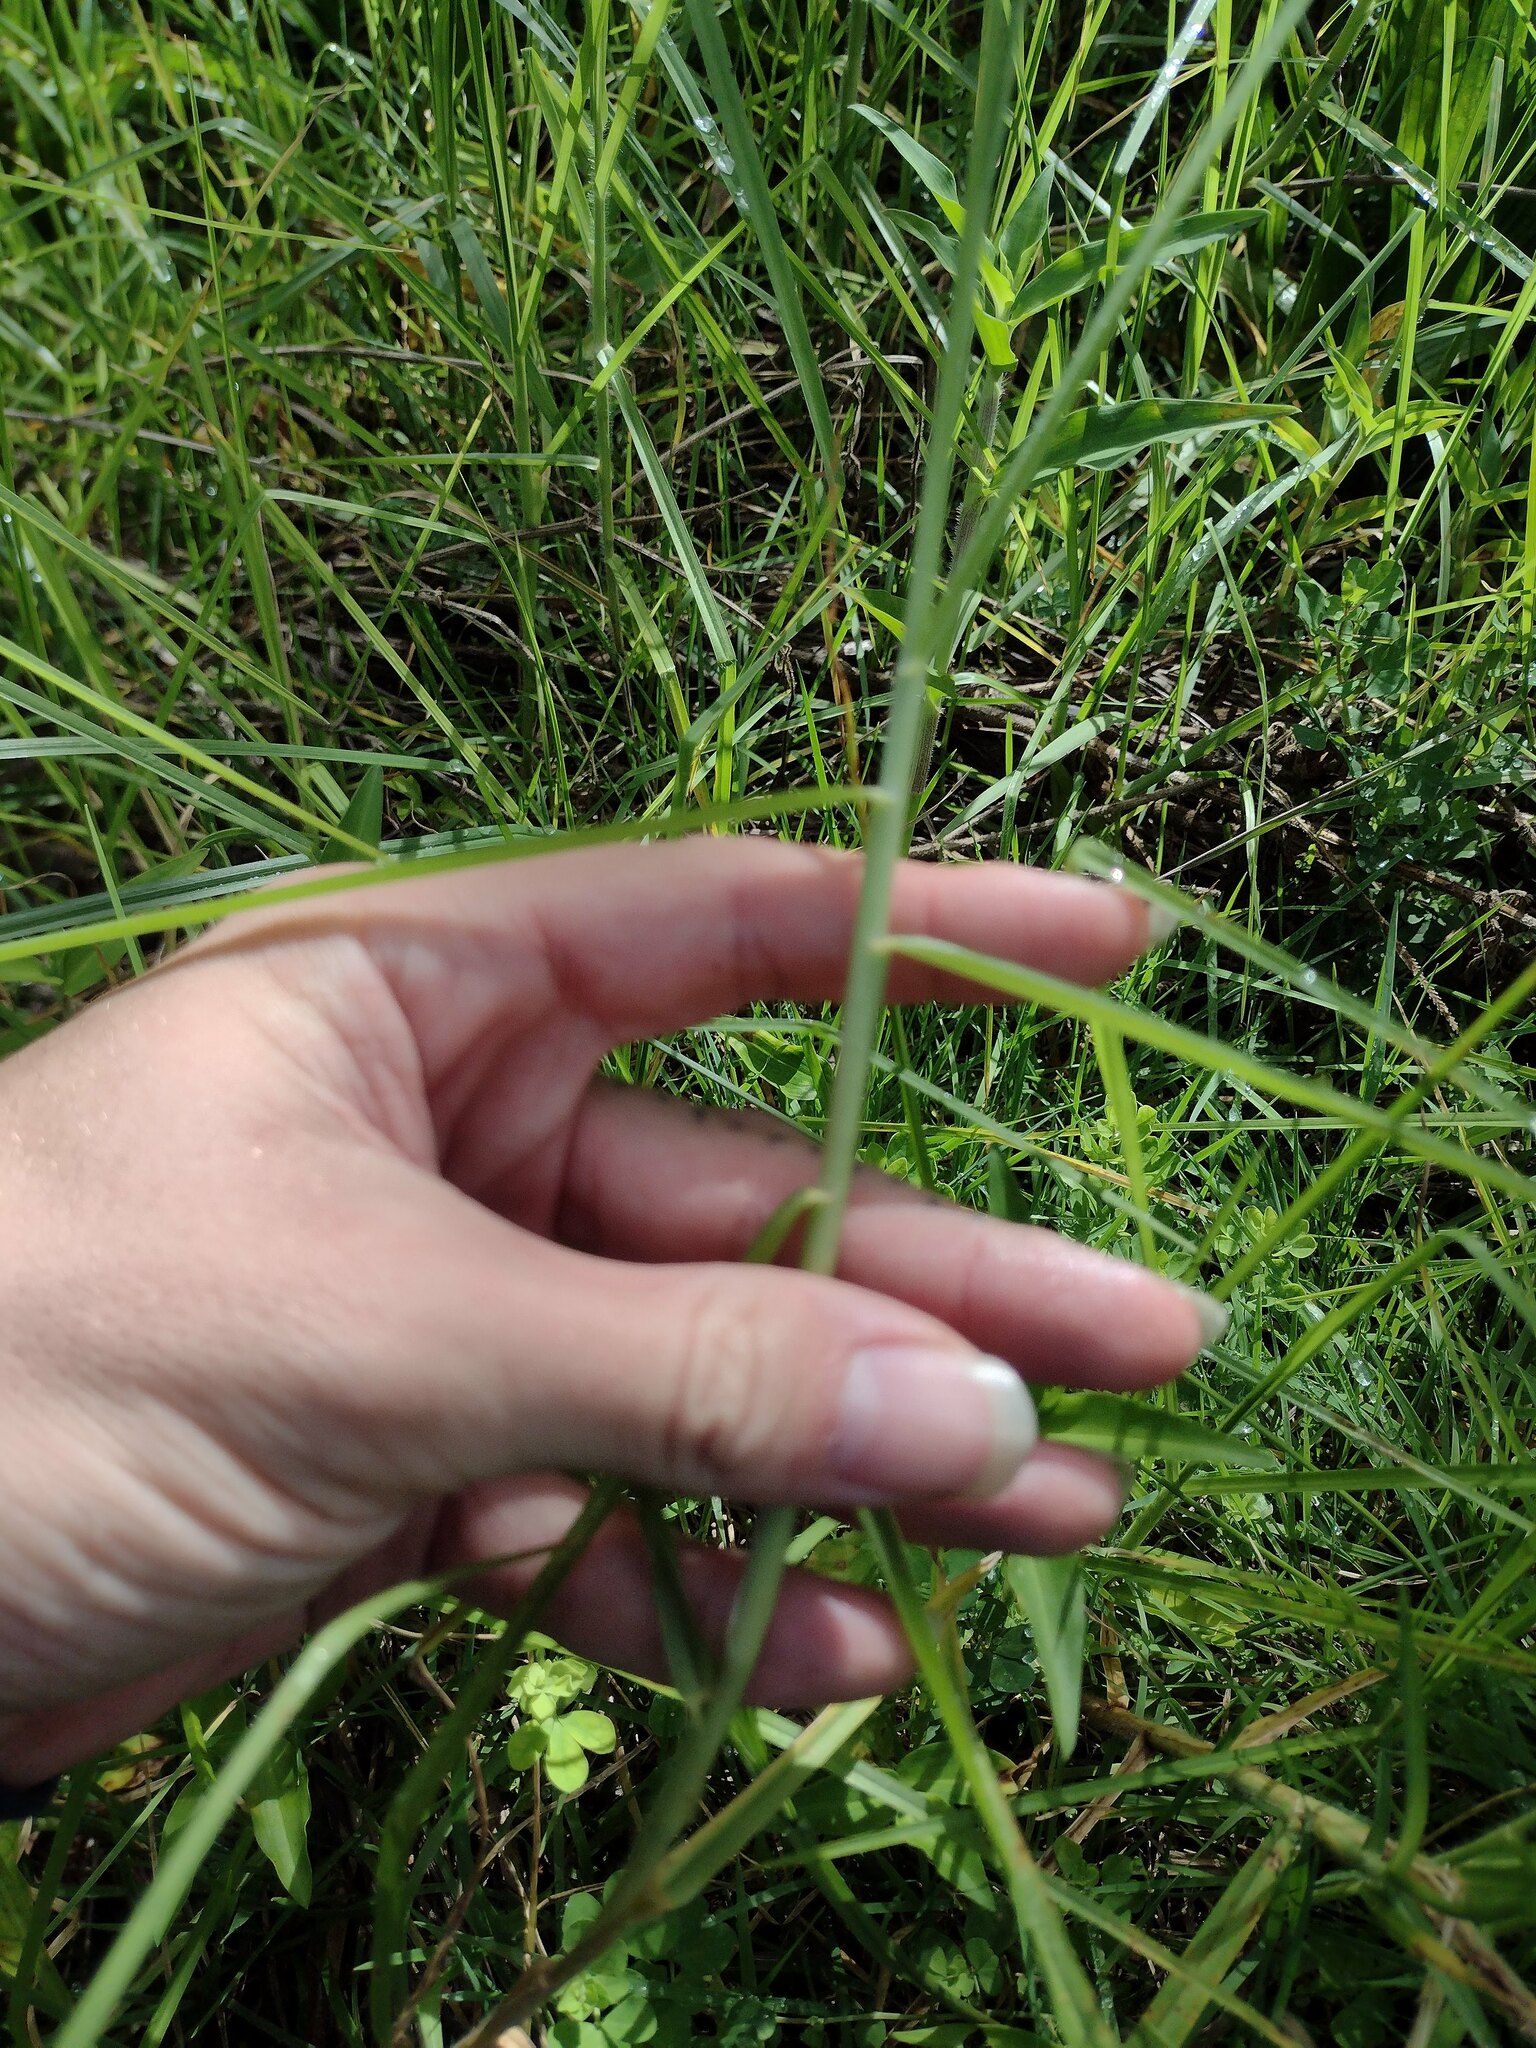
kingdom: Plantae
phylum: Tracheophyta
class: Liliopsida
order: Poales
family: Poaceae
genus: Cenchrus
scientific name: Cenchrus clandestinus
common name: Kikuyugrass
